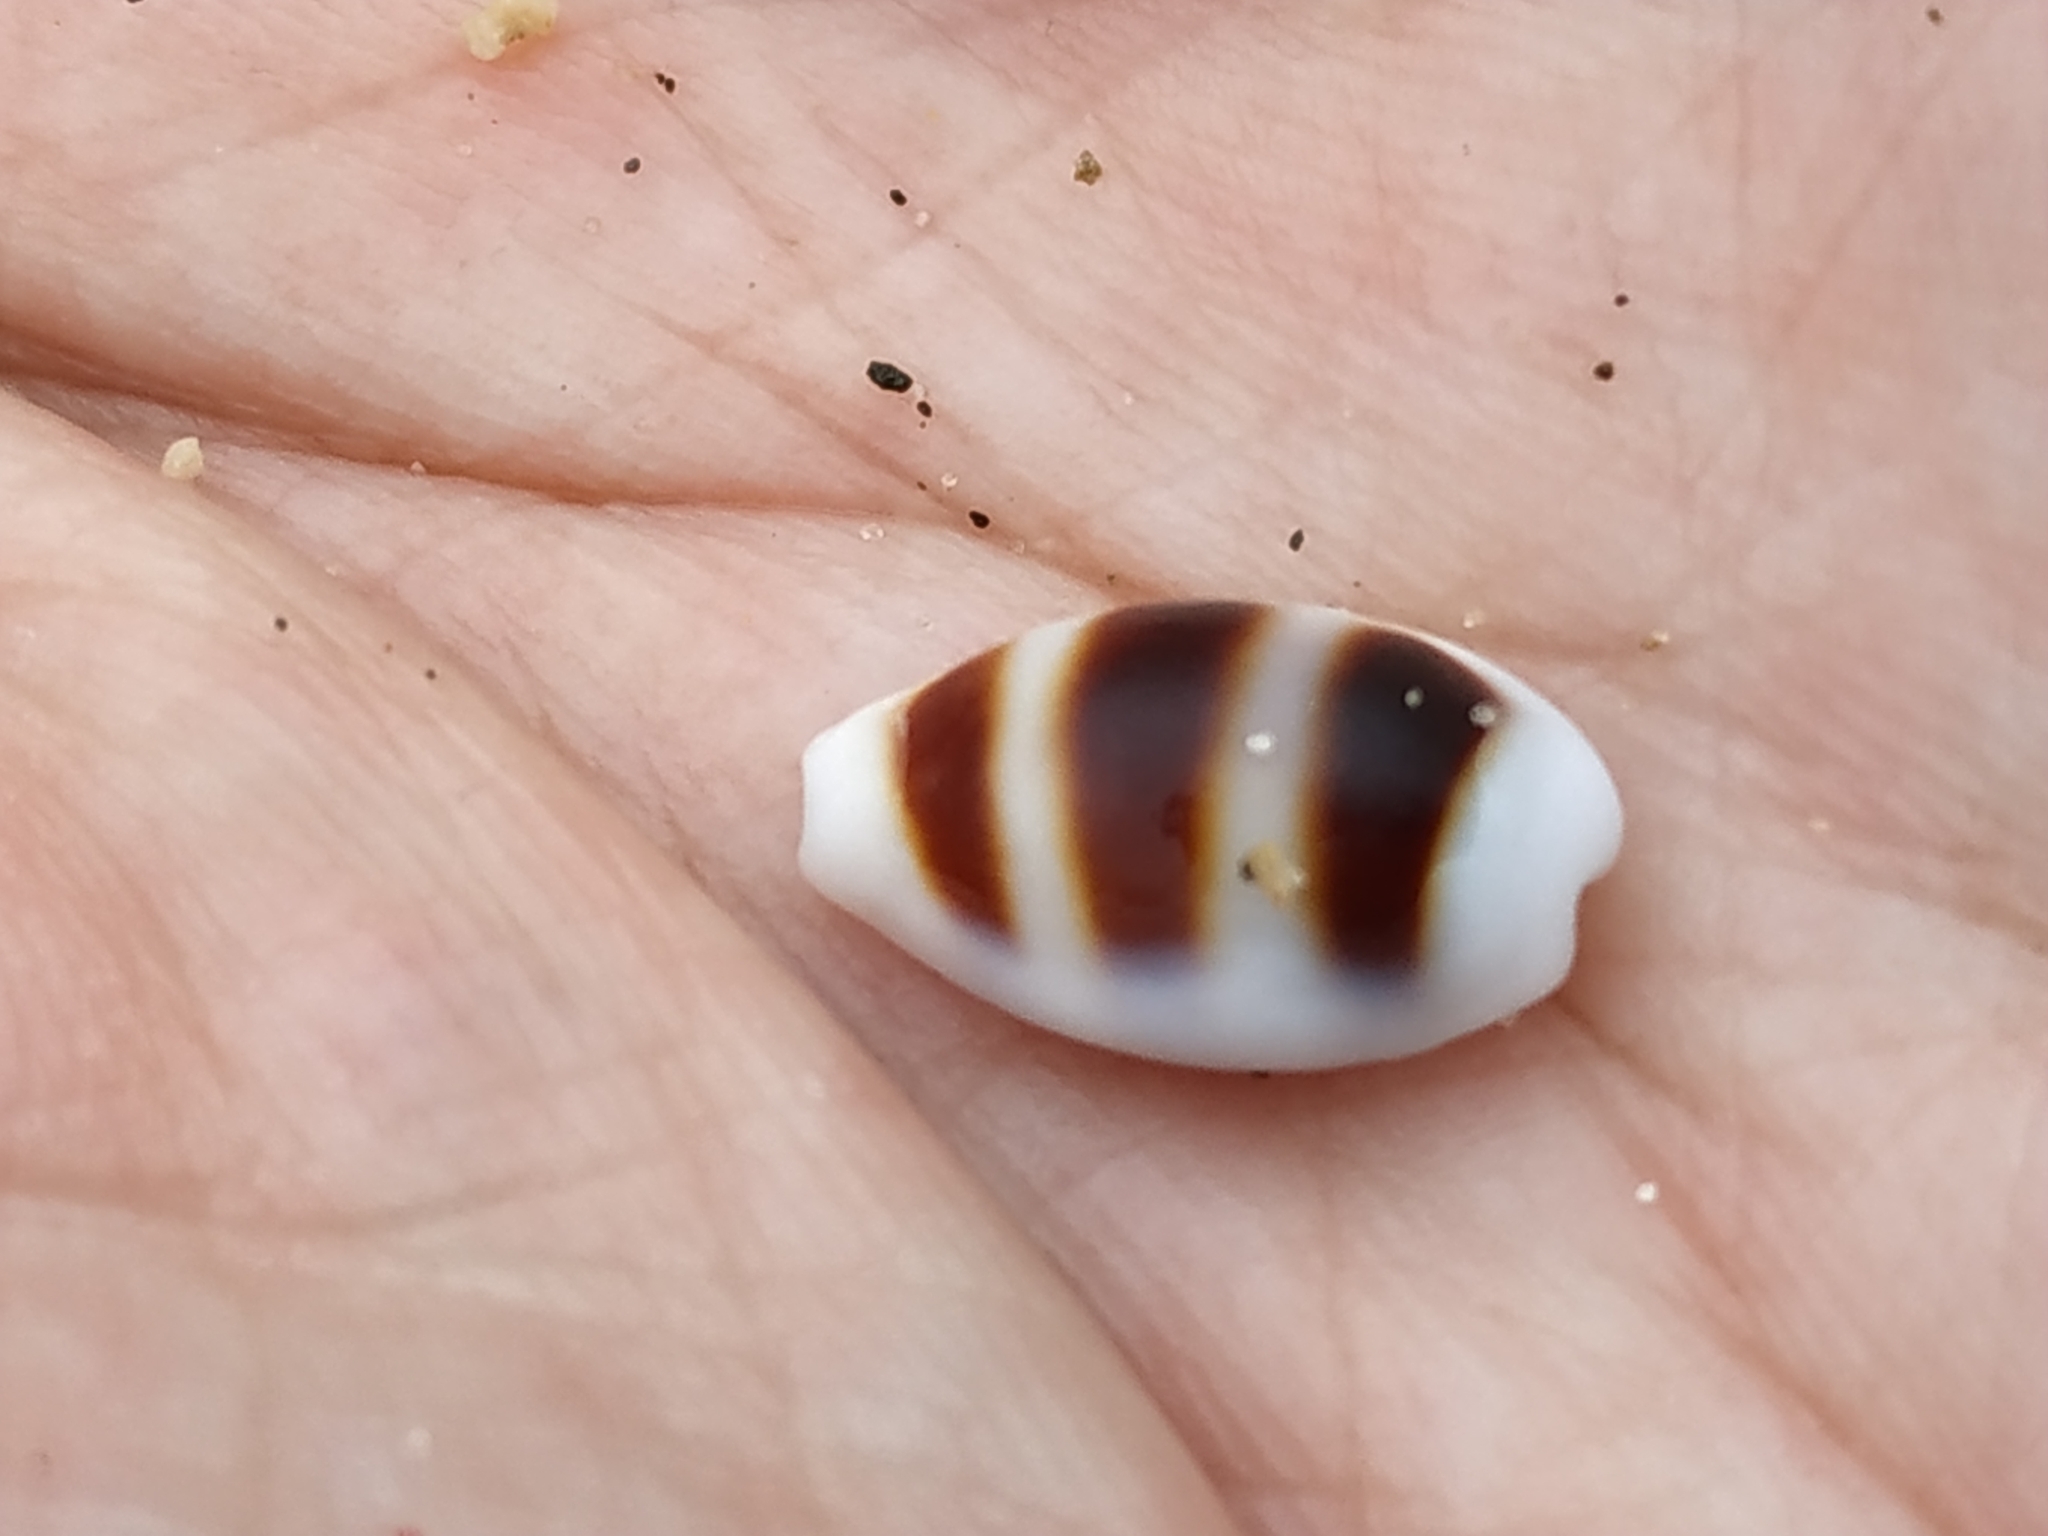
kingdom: Animalia
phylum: Mollusca
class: Gastropoda
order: Littorinimorpha
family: Cypraeidae
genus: Palmadusta
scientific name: Palmadusta asellus
